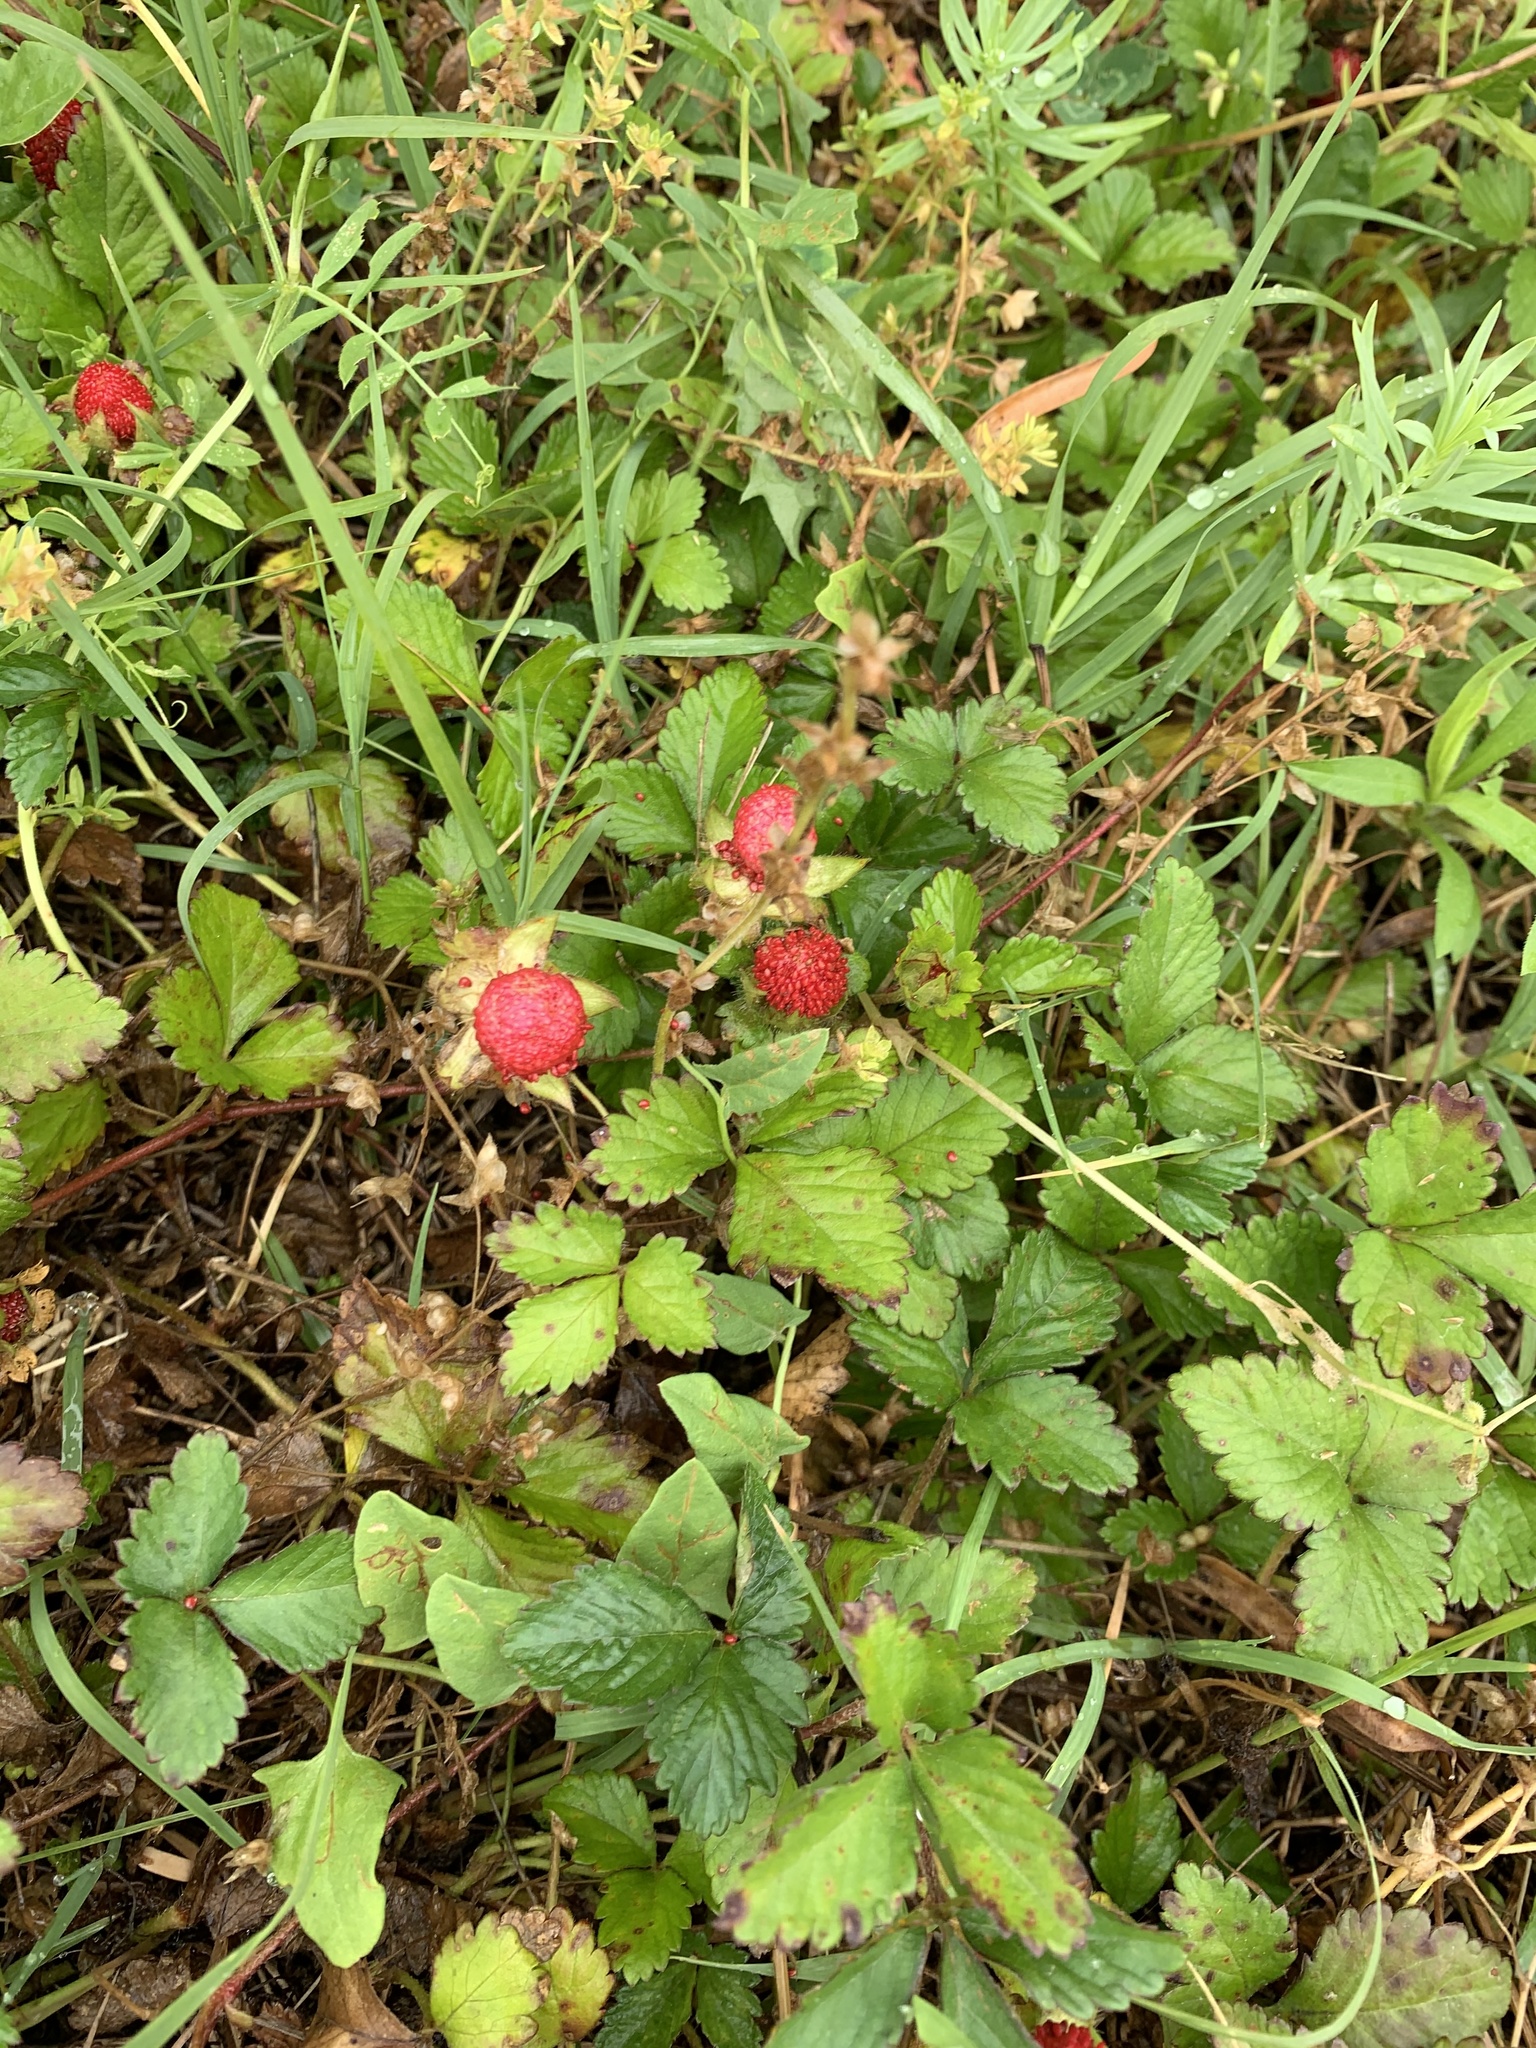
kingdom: Plantae
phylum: Tracheophyta
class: Magnoliopsida
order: Rosales
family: Rosaceae
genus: Potentilla
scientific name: Potentilla indica
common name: Yellow-flowered strawberry
